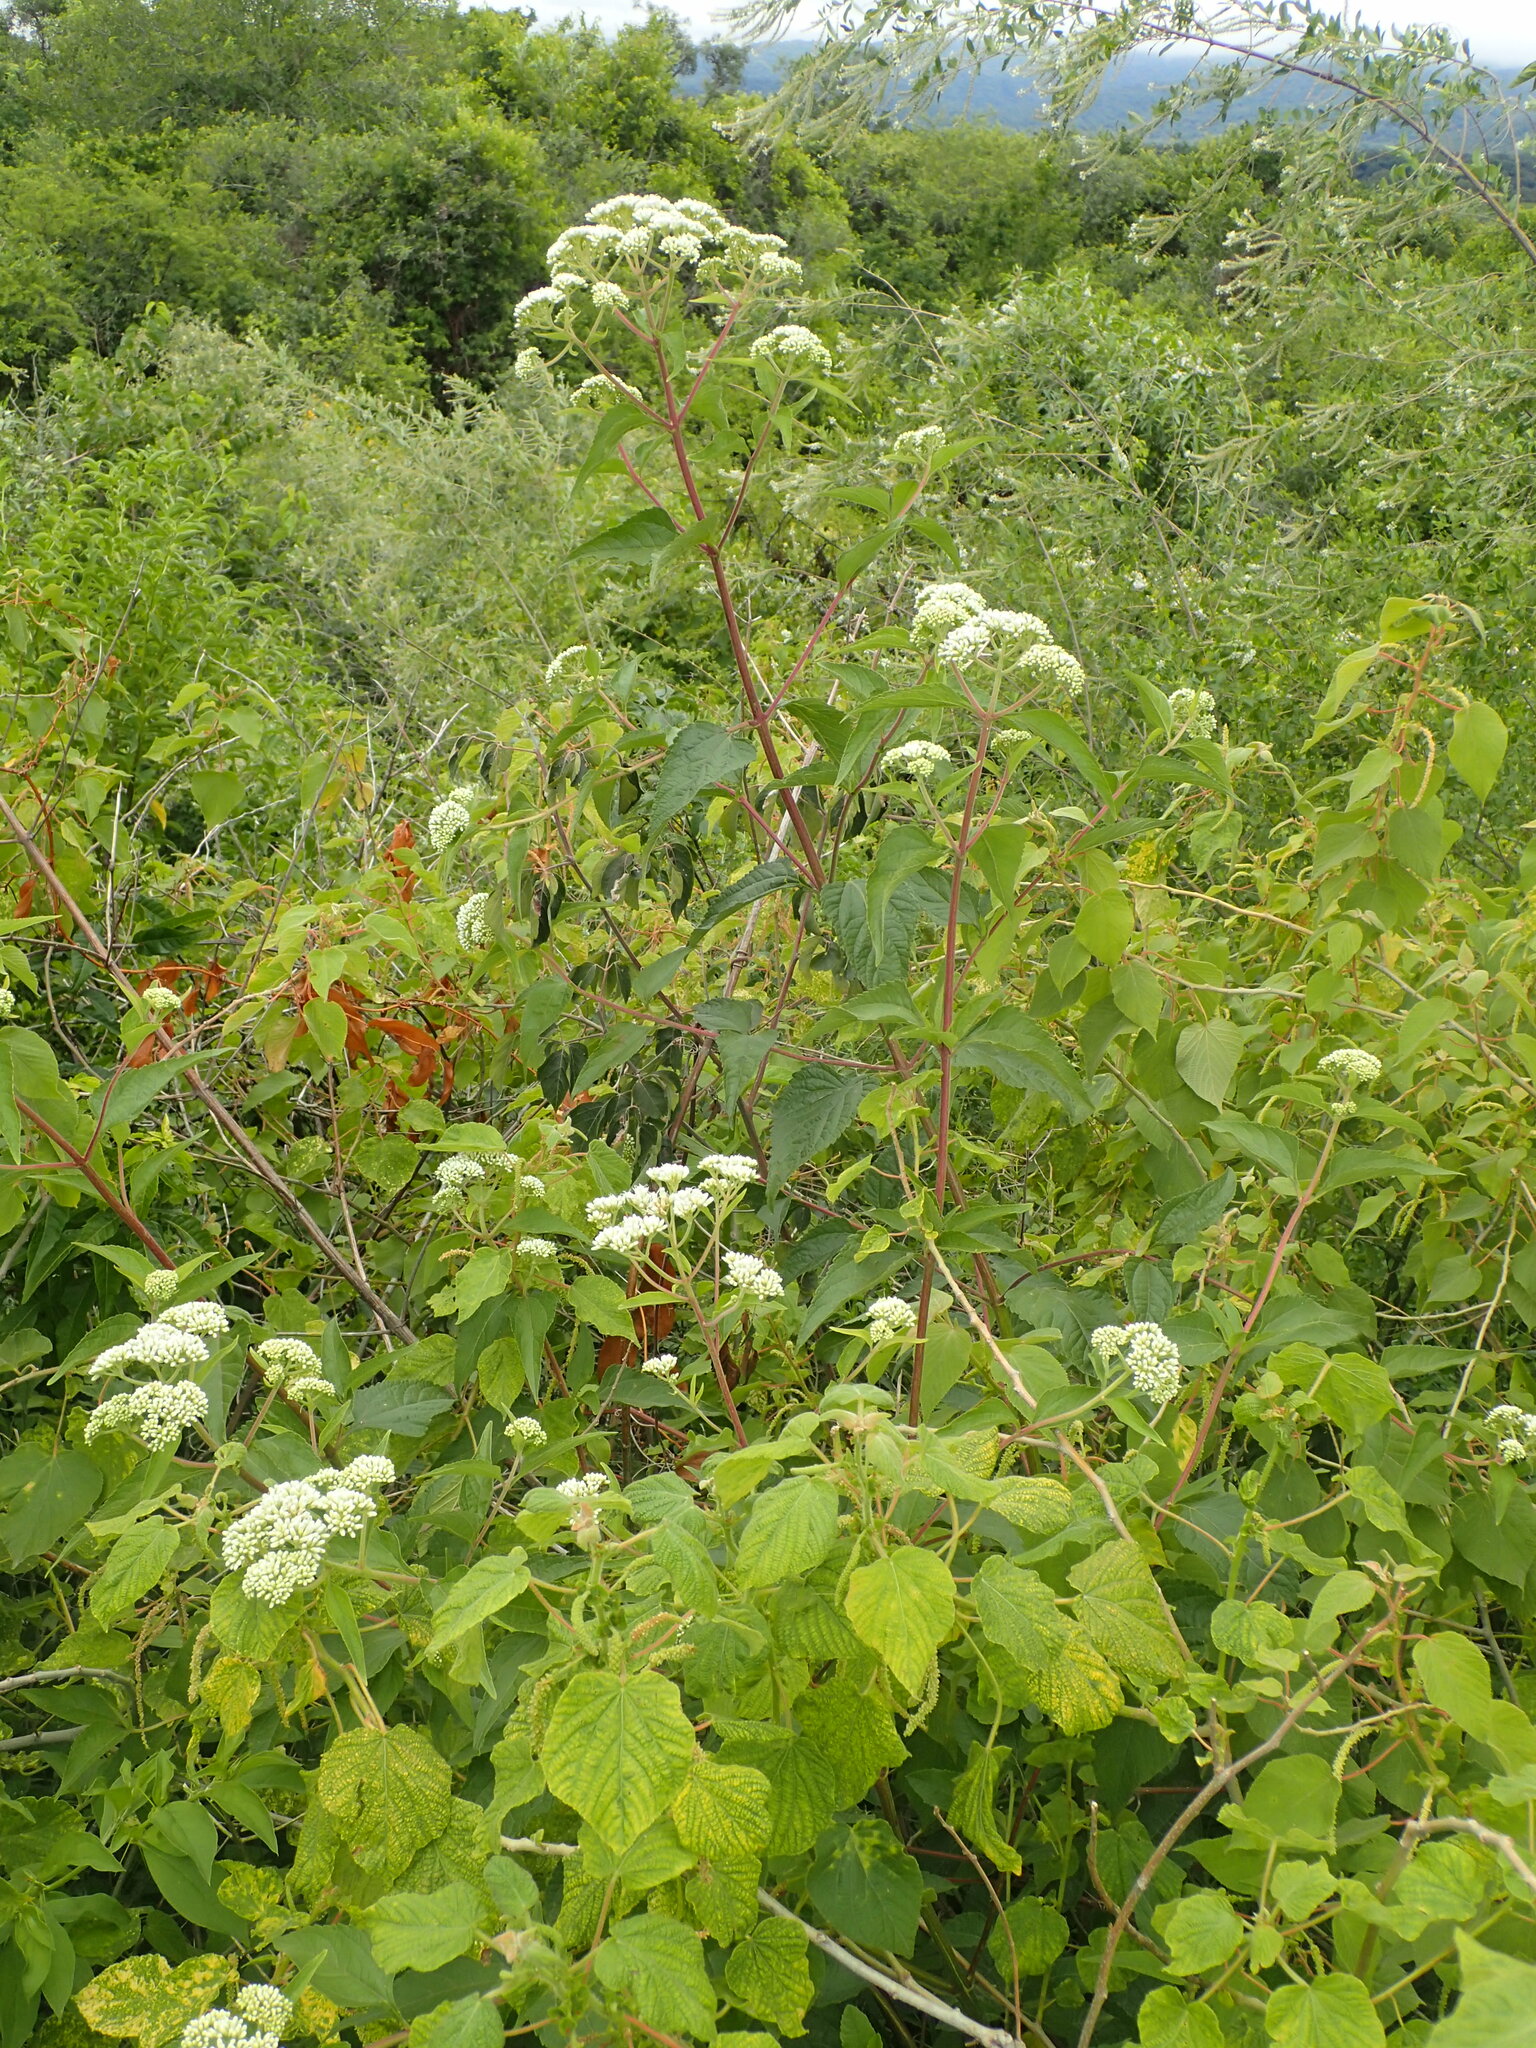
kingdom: Plantae
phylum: Tracheophyta
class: Magnoliopsida
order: Asterales
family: Asteraceae
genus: Austroeupatorium
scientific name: Austroeupatorium inulifolium
